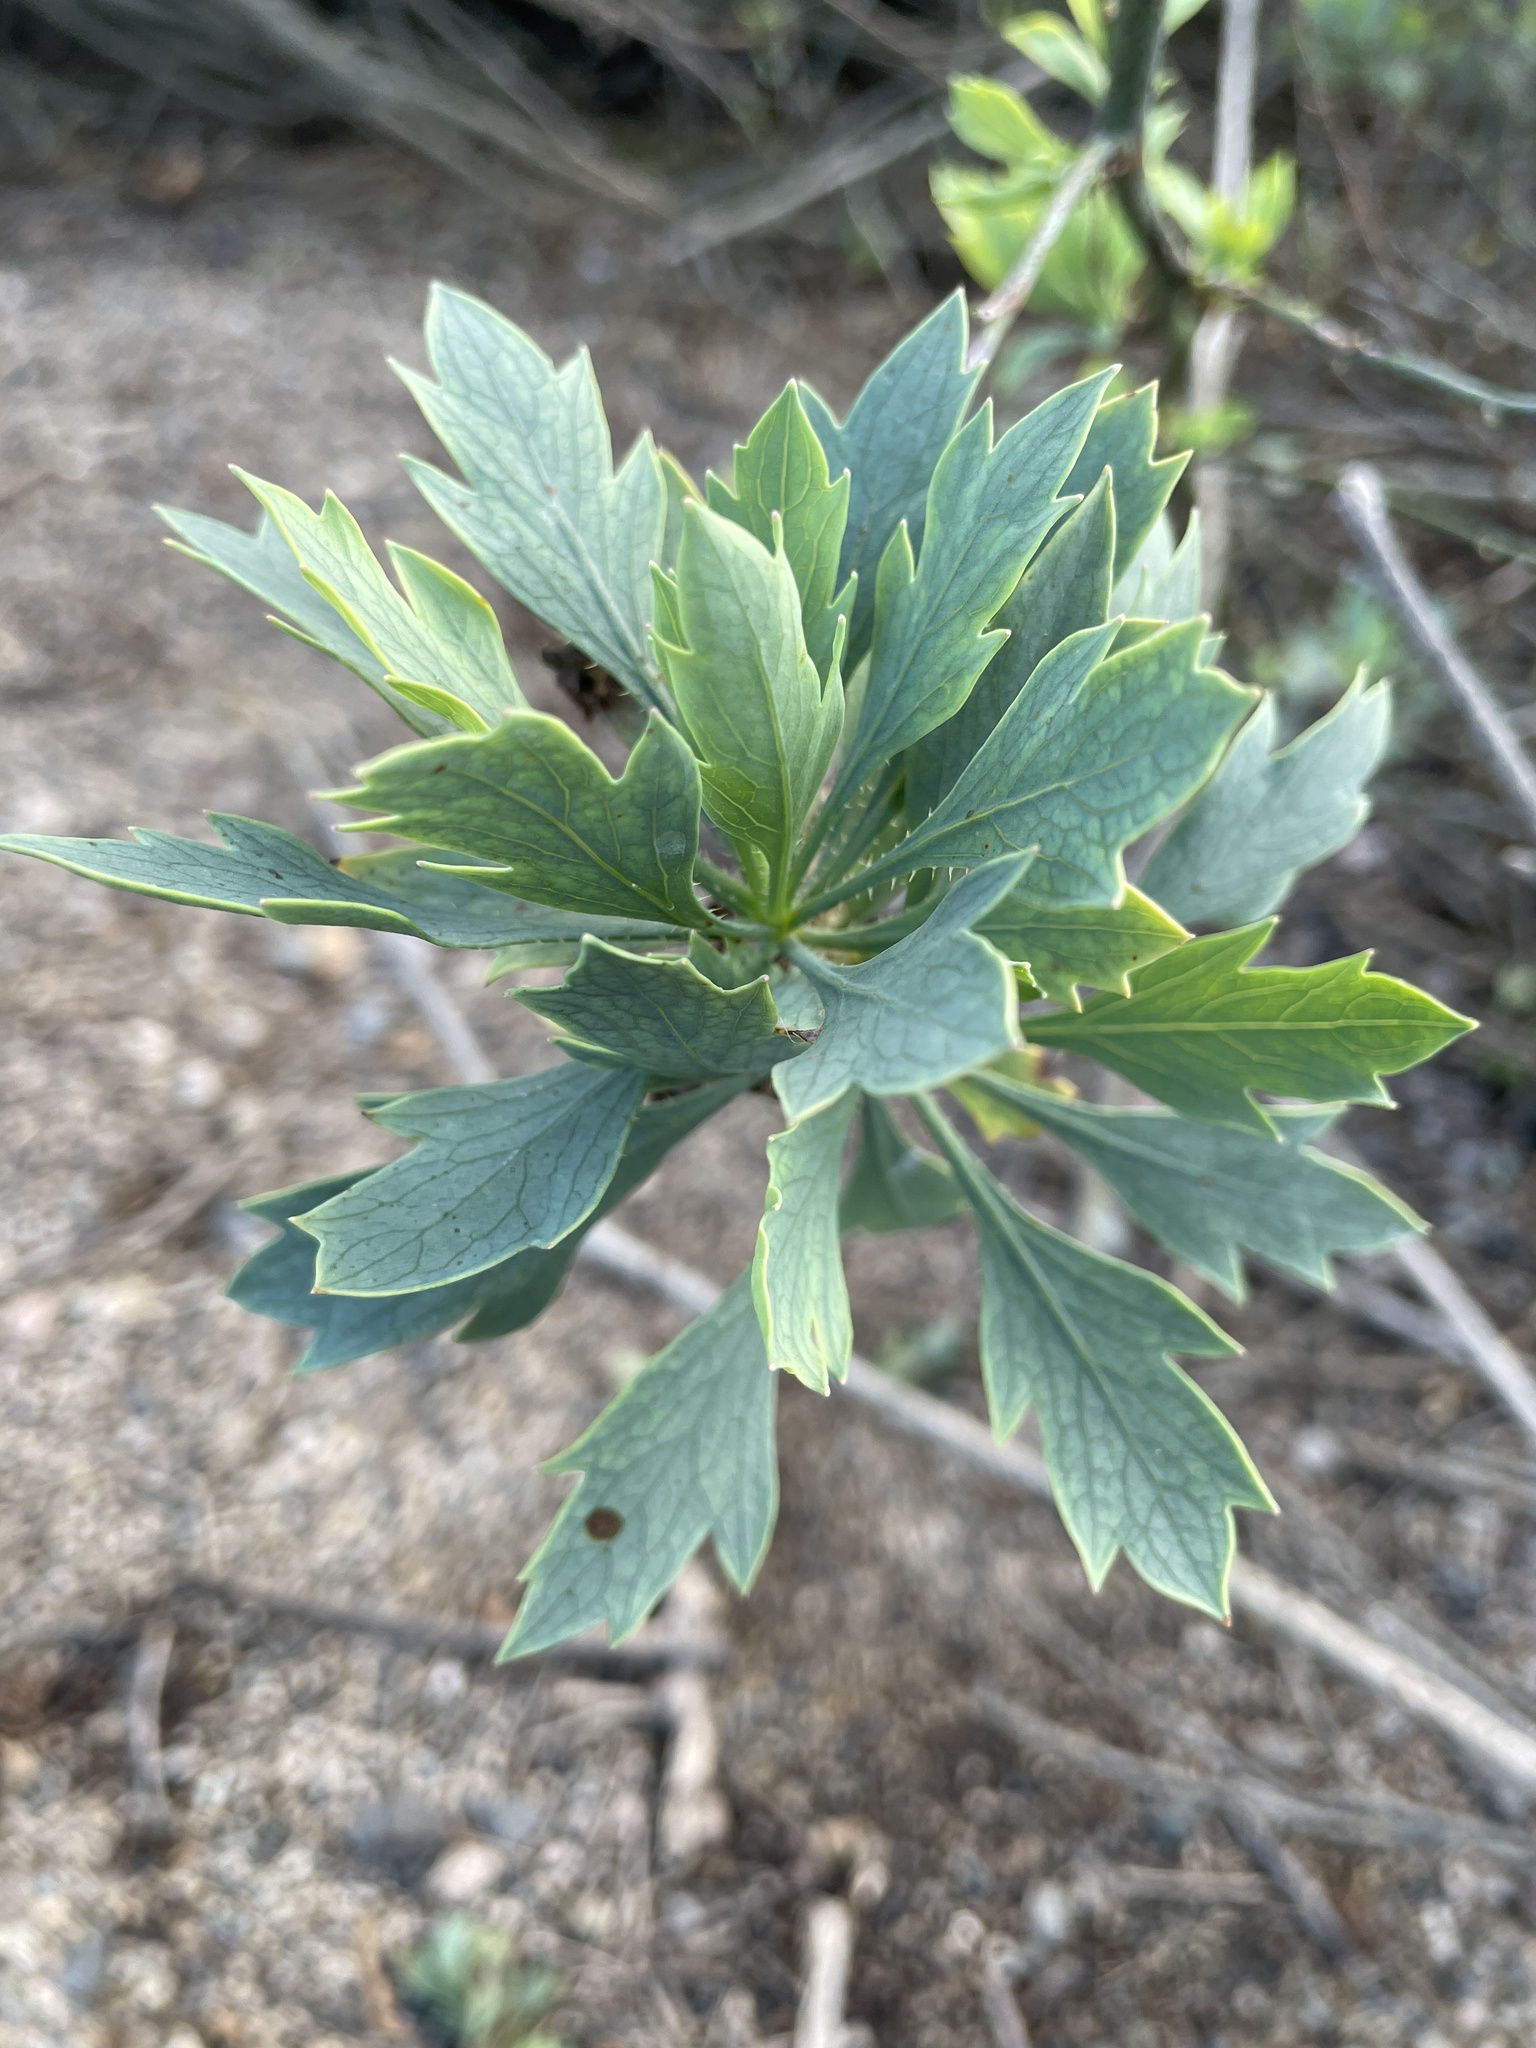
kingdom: Plantae
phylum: Tracheophyta
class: Magnoliopsida
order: Ranunculales
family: Papaveraceae
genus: Romneya
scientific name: Romneya coulteri
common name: California tree-poppy
